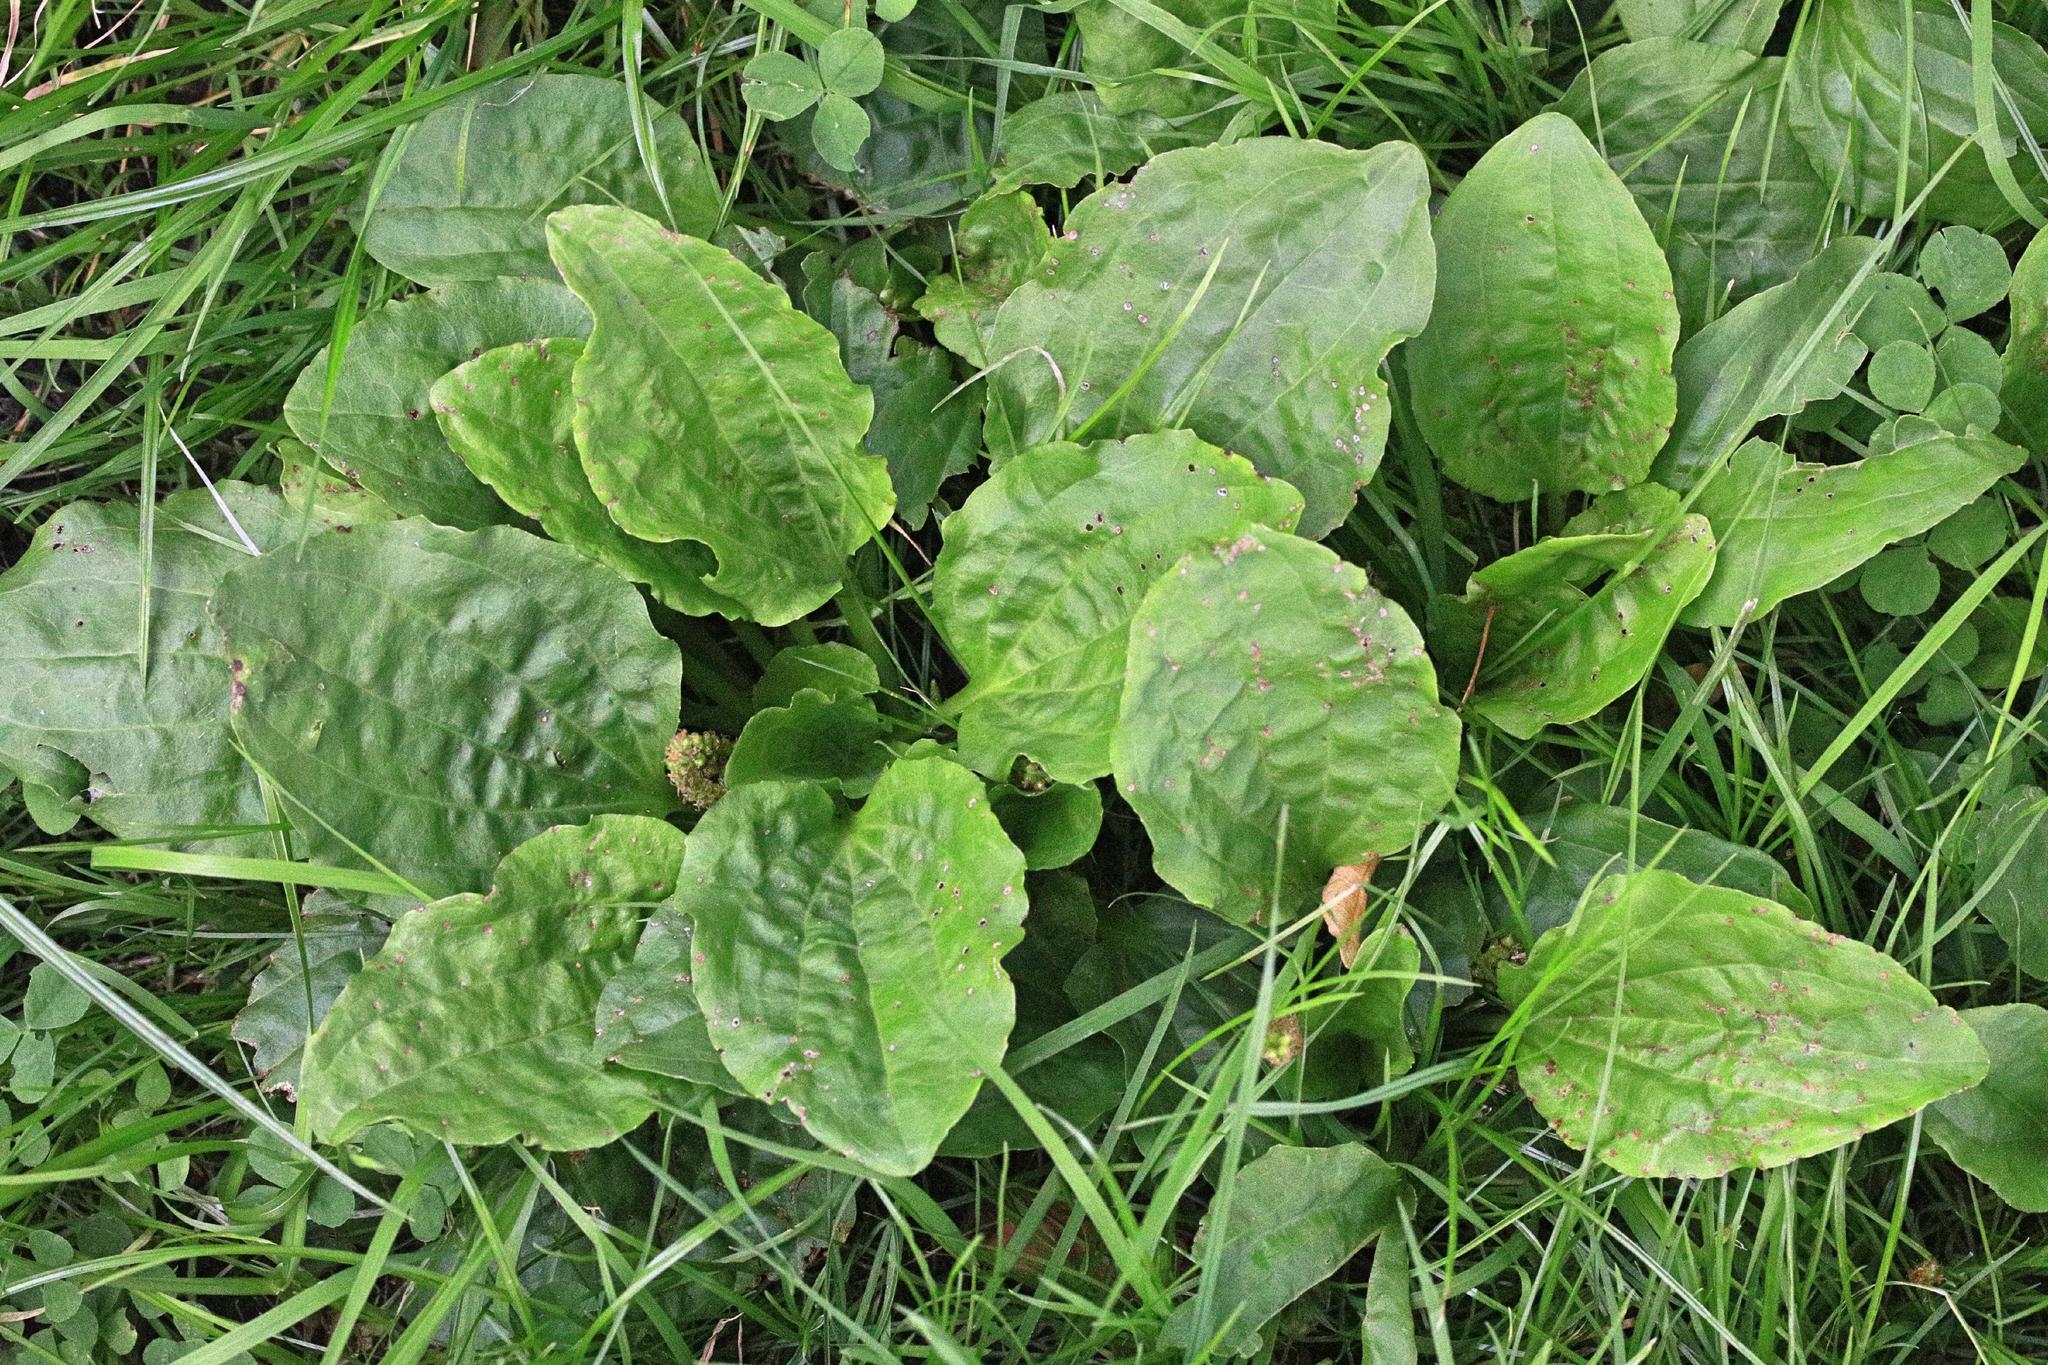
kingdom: Plantae
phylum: Tracheophyta
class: Magnoliopsida
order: Lamiales
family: Plantaginaceae
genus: Plantago
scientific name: Plantago major
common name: Common plantain
